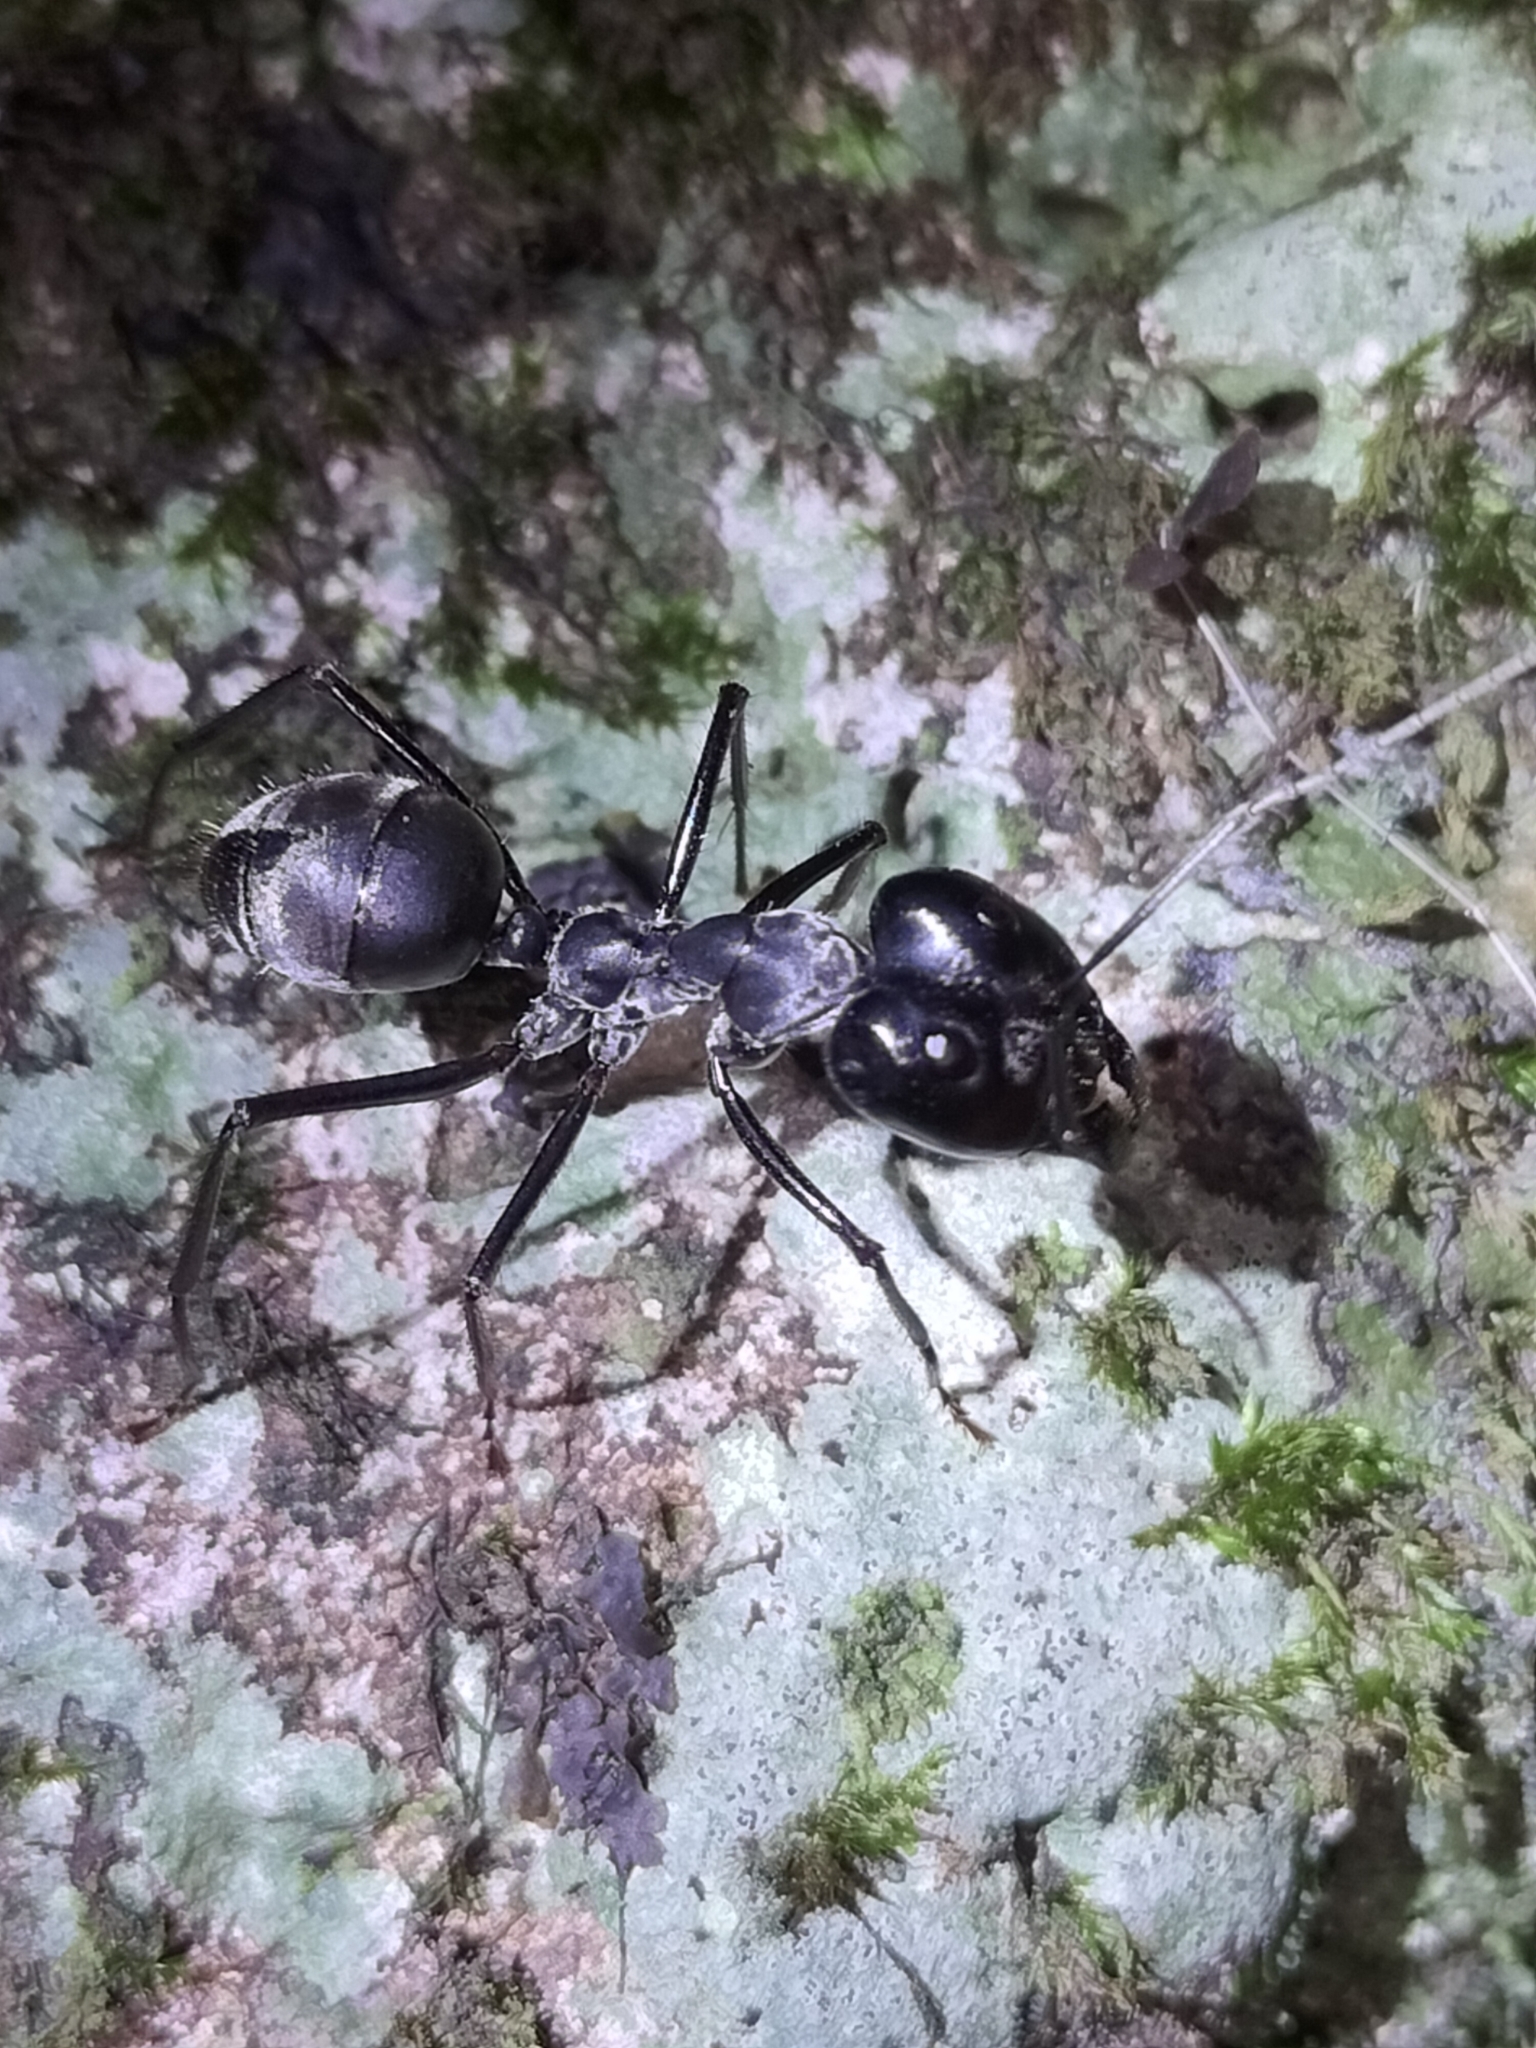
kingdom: Animalia
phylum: Arthropoda
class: Insecta
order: Hymenoptera
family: Formicidae
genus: Notostigma
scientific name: Notostigma carazzii
